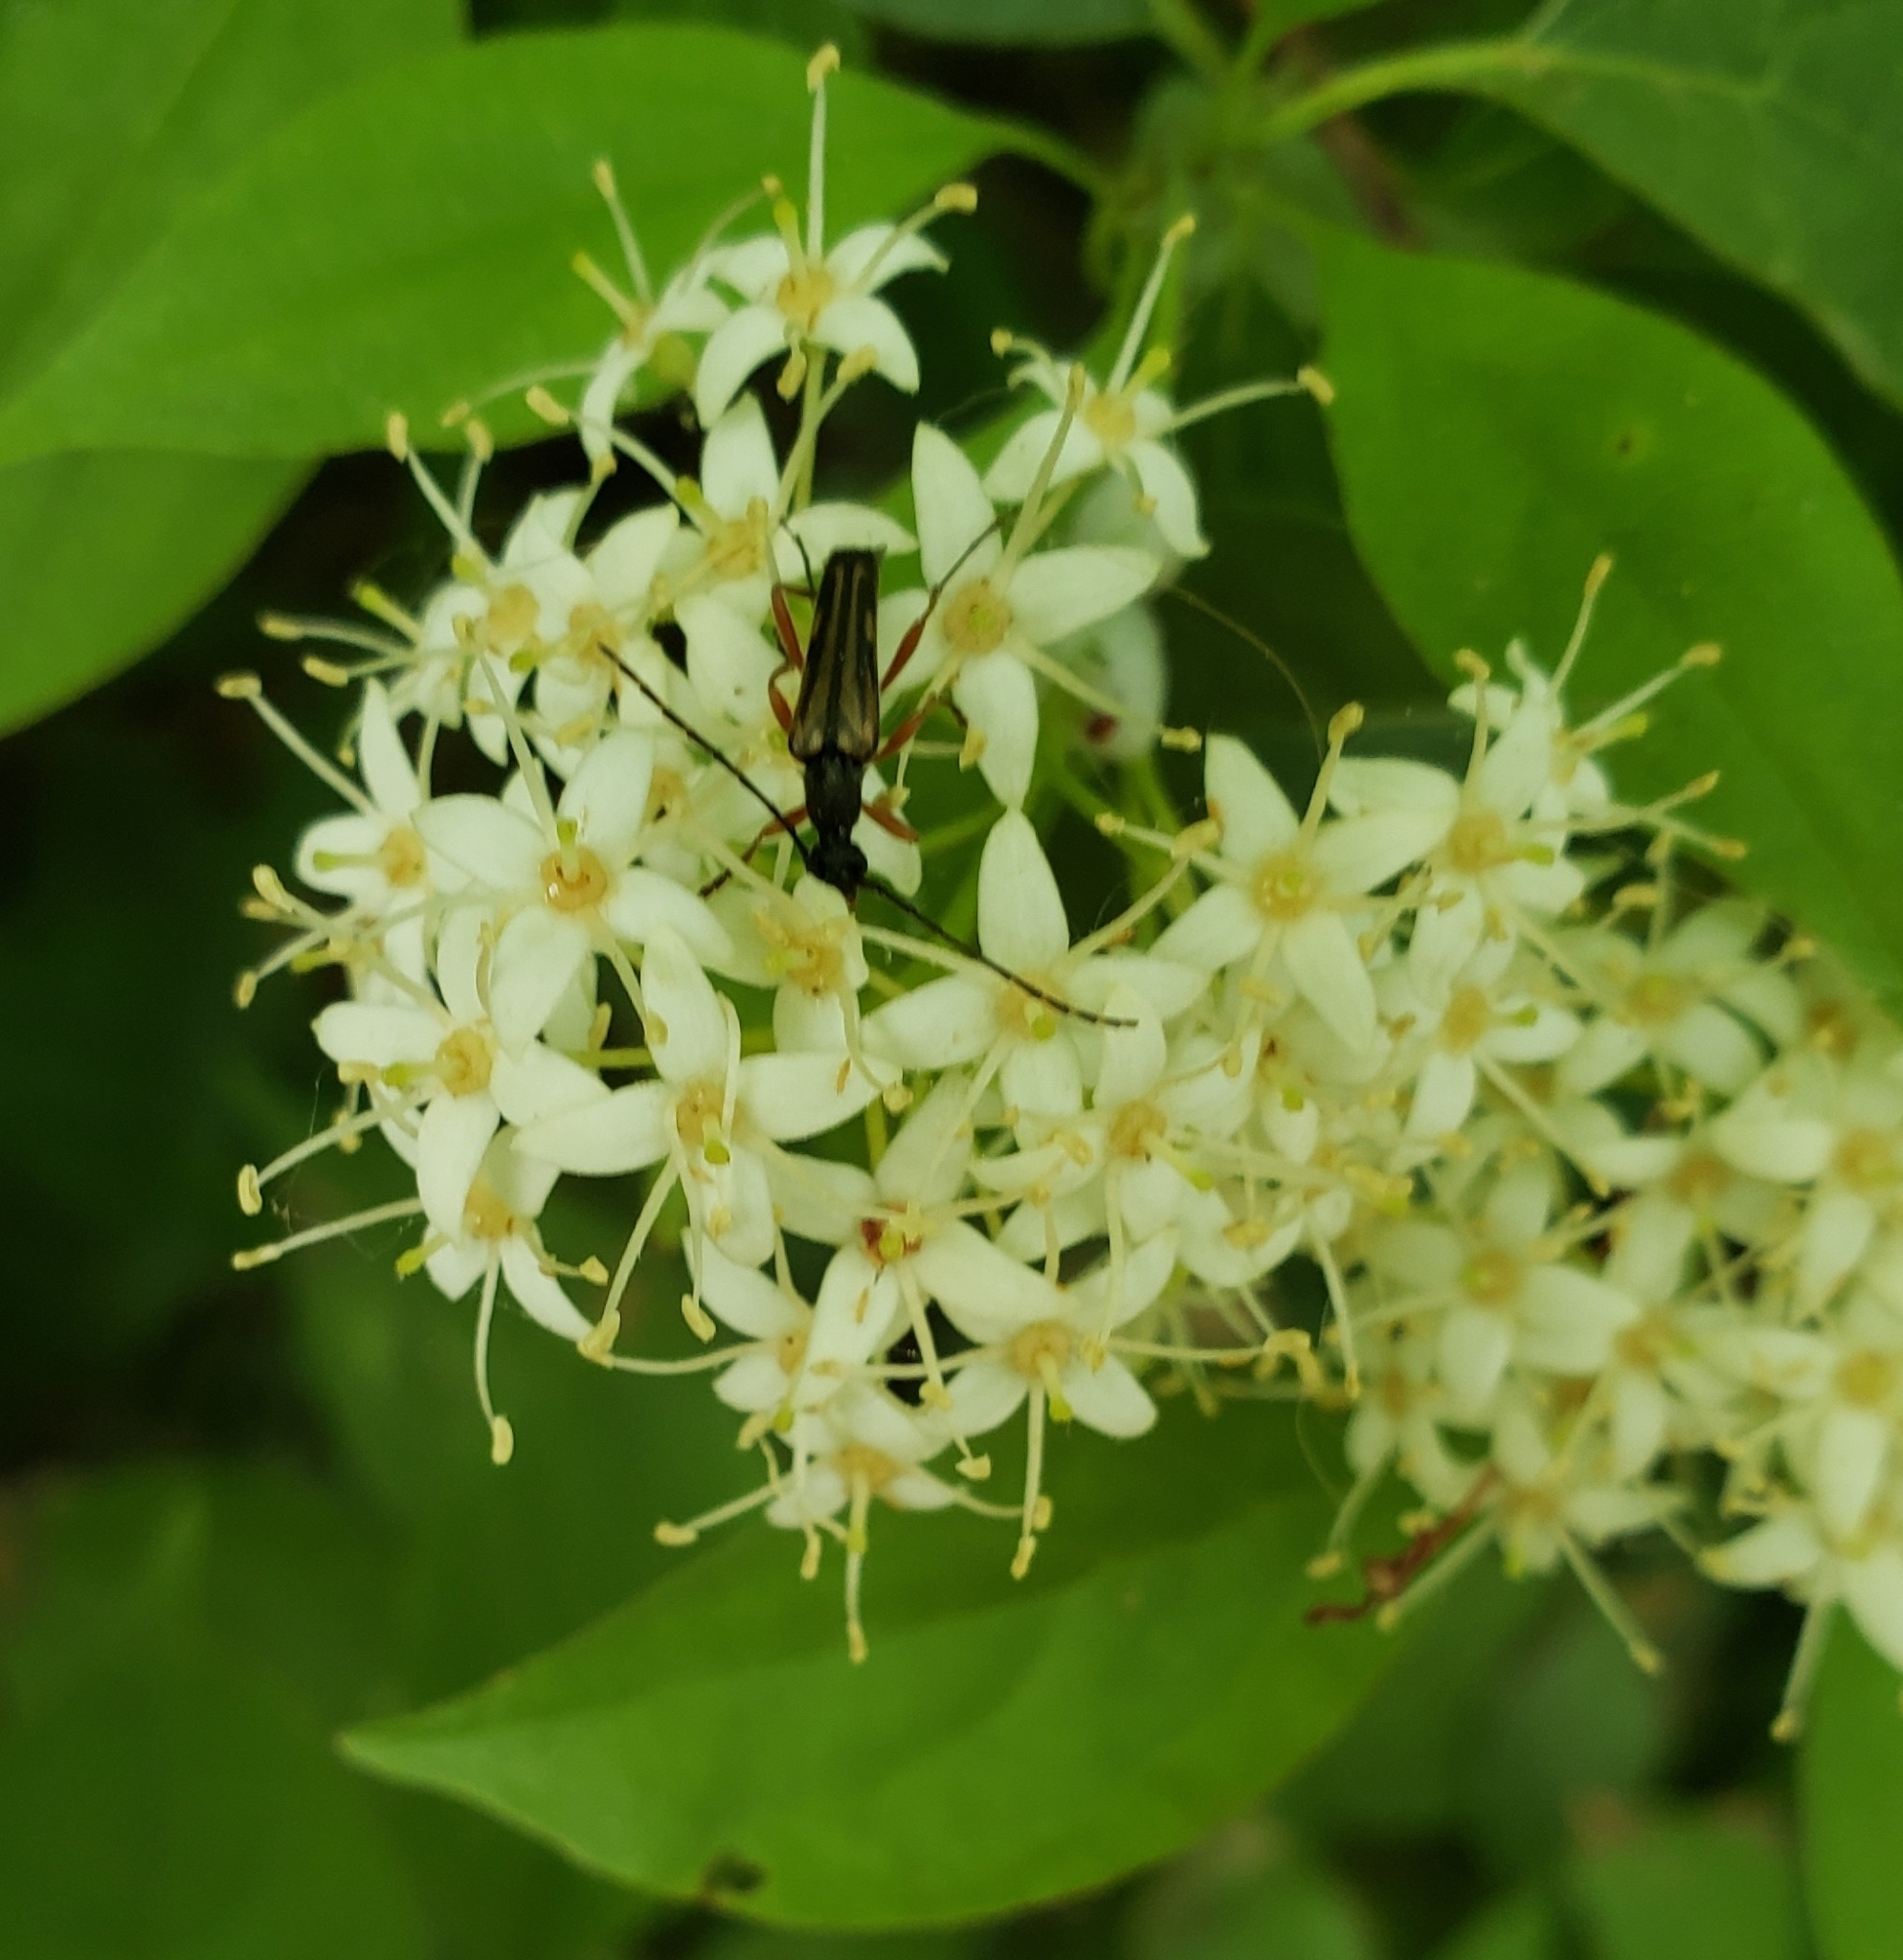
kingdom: Animalia
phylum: Arthropoda
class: Insecta
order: Coleoptera
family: Cerambycidae
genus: Analeptura
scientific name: Analeptura lineola
